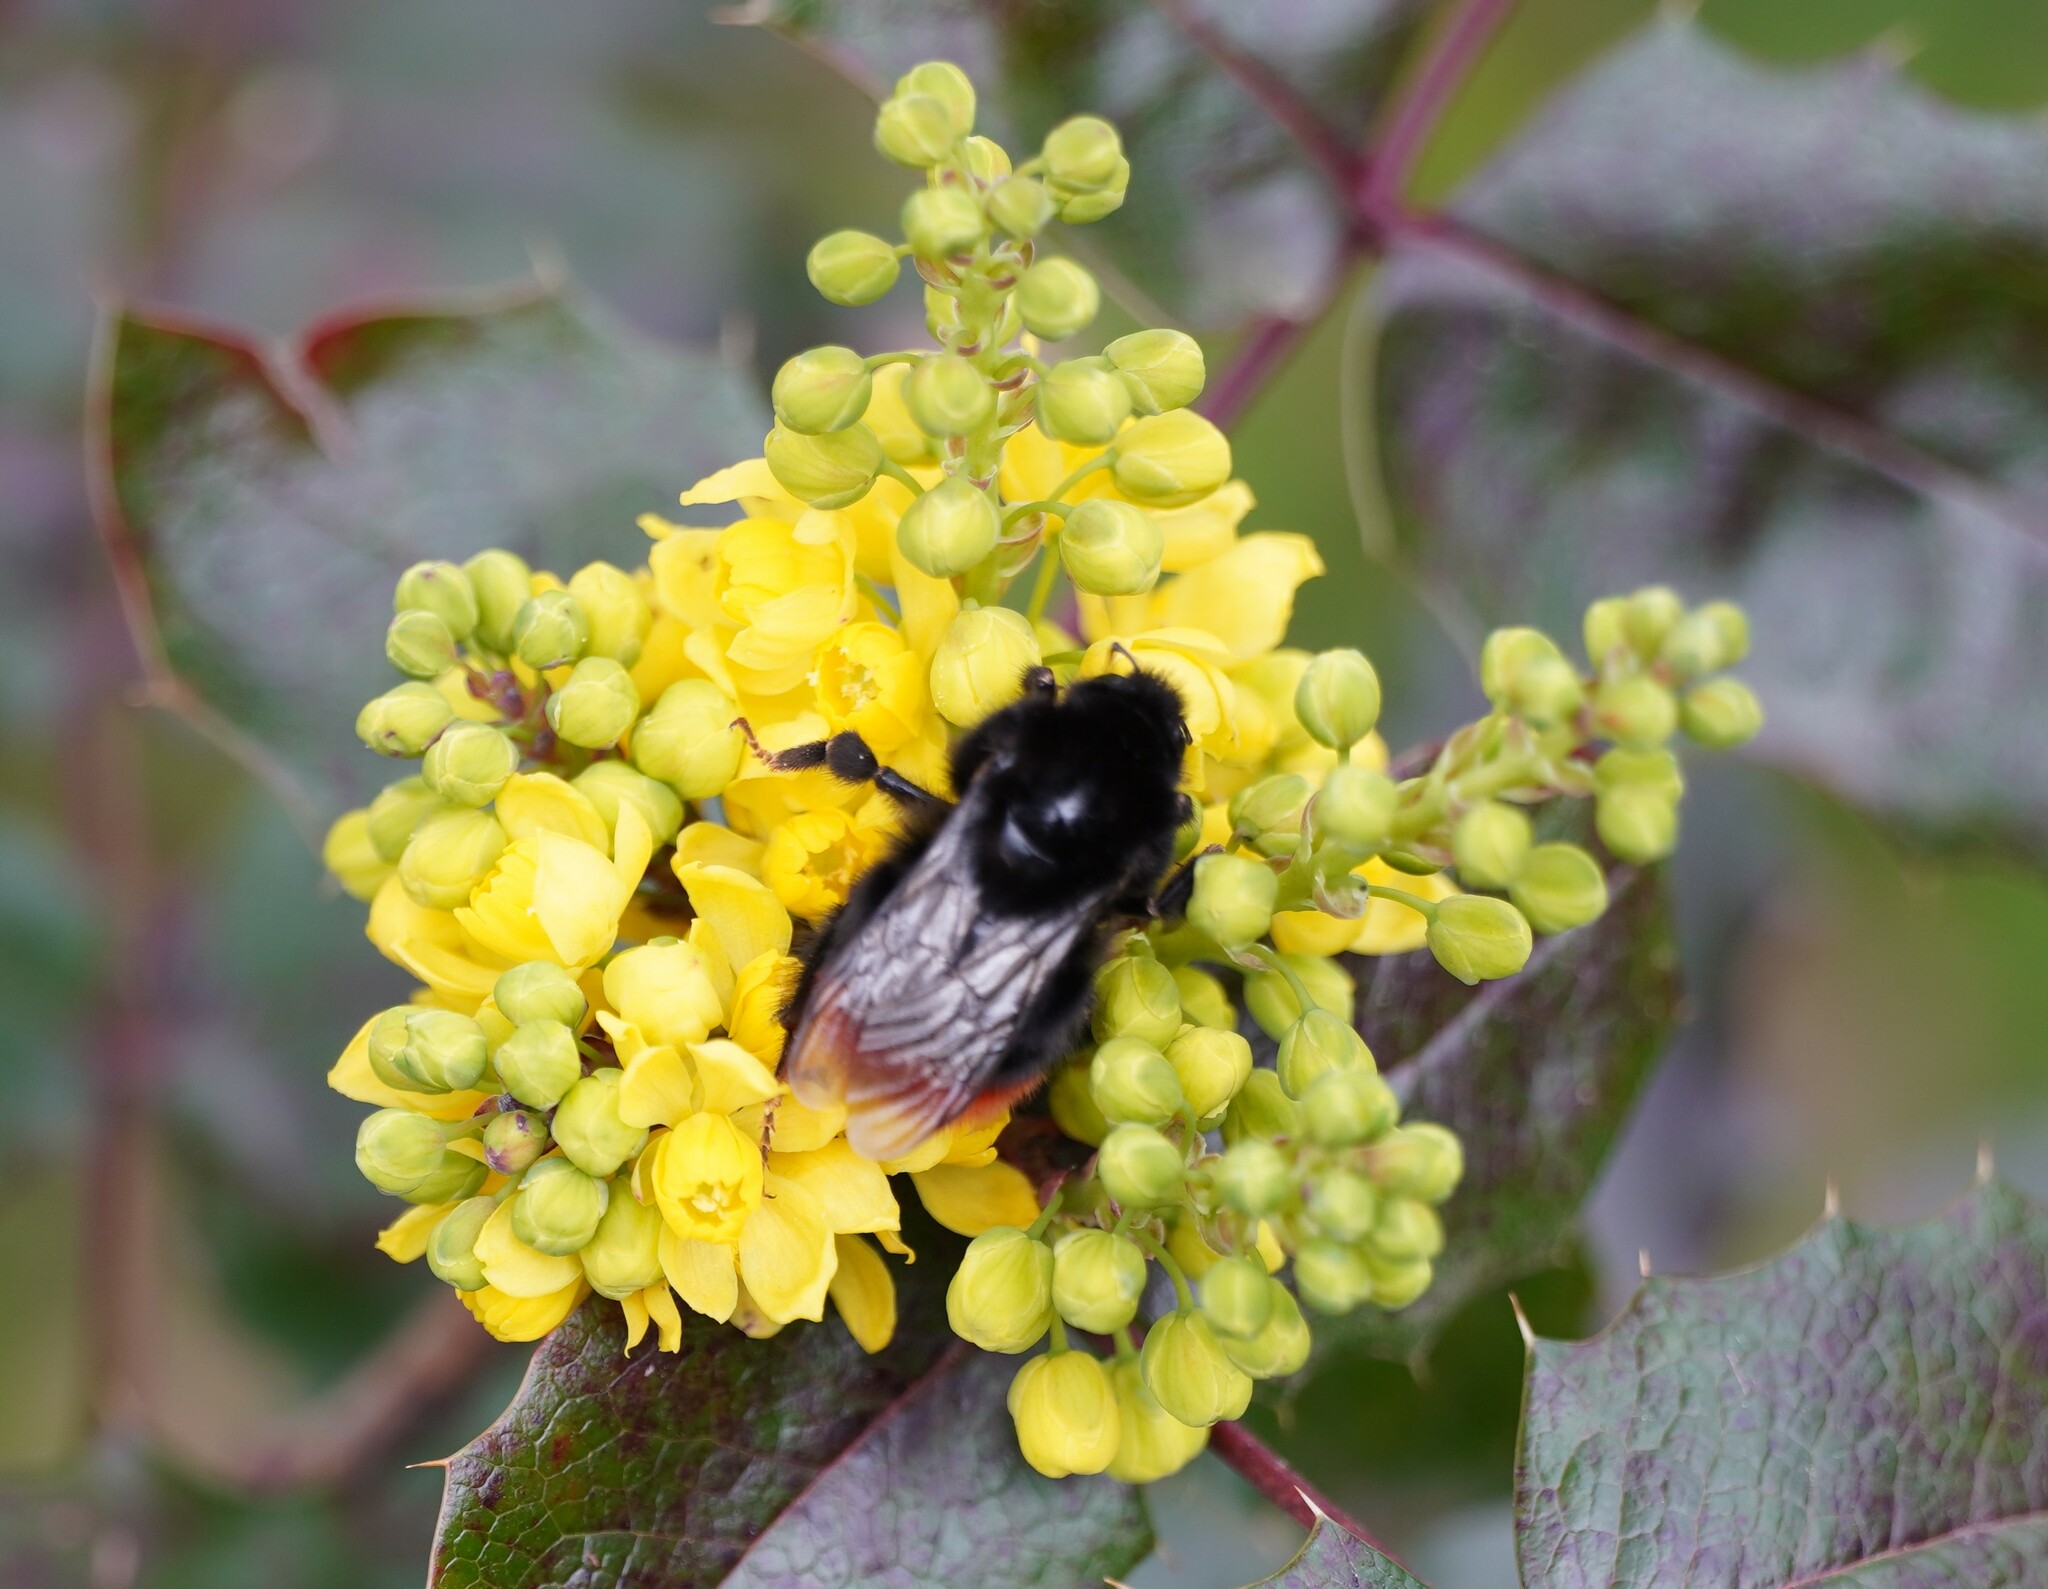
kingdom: Animalia
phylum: Arthropoda
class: Insecta
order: Hymenoptera
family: Apidae
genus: Bombus
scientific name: Bombus lapidarius
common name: Large red-tailed humble-bee
